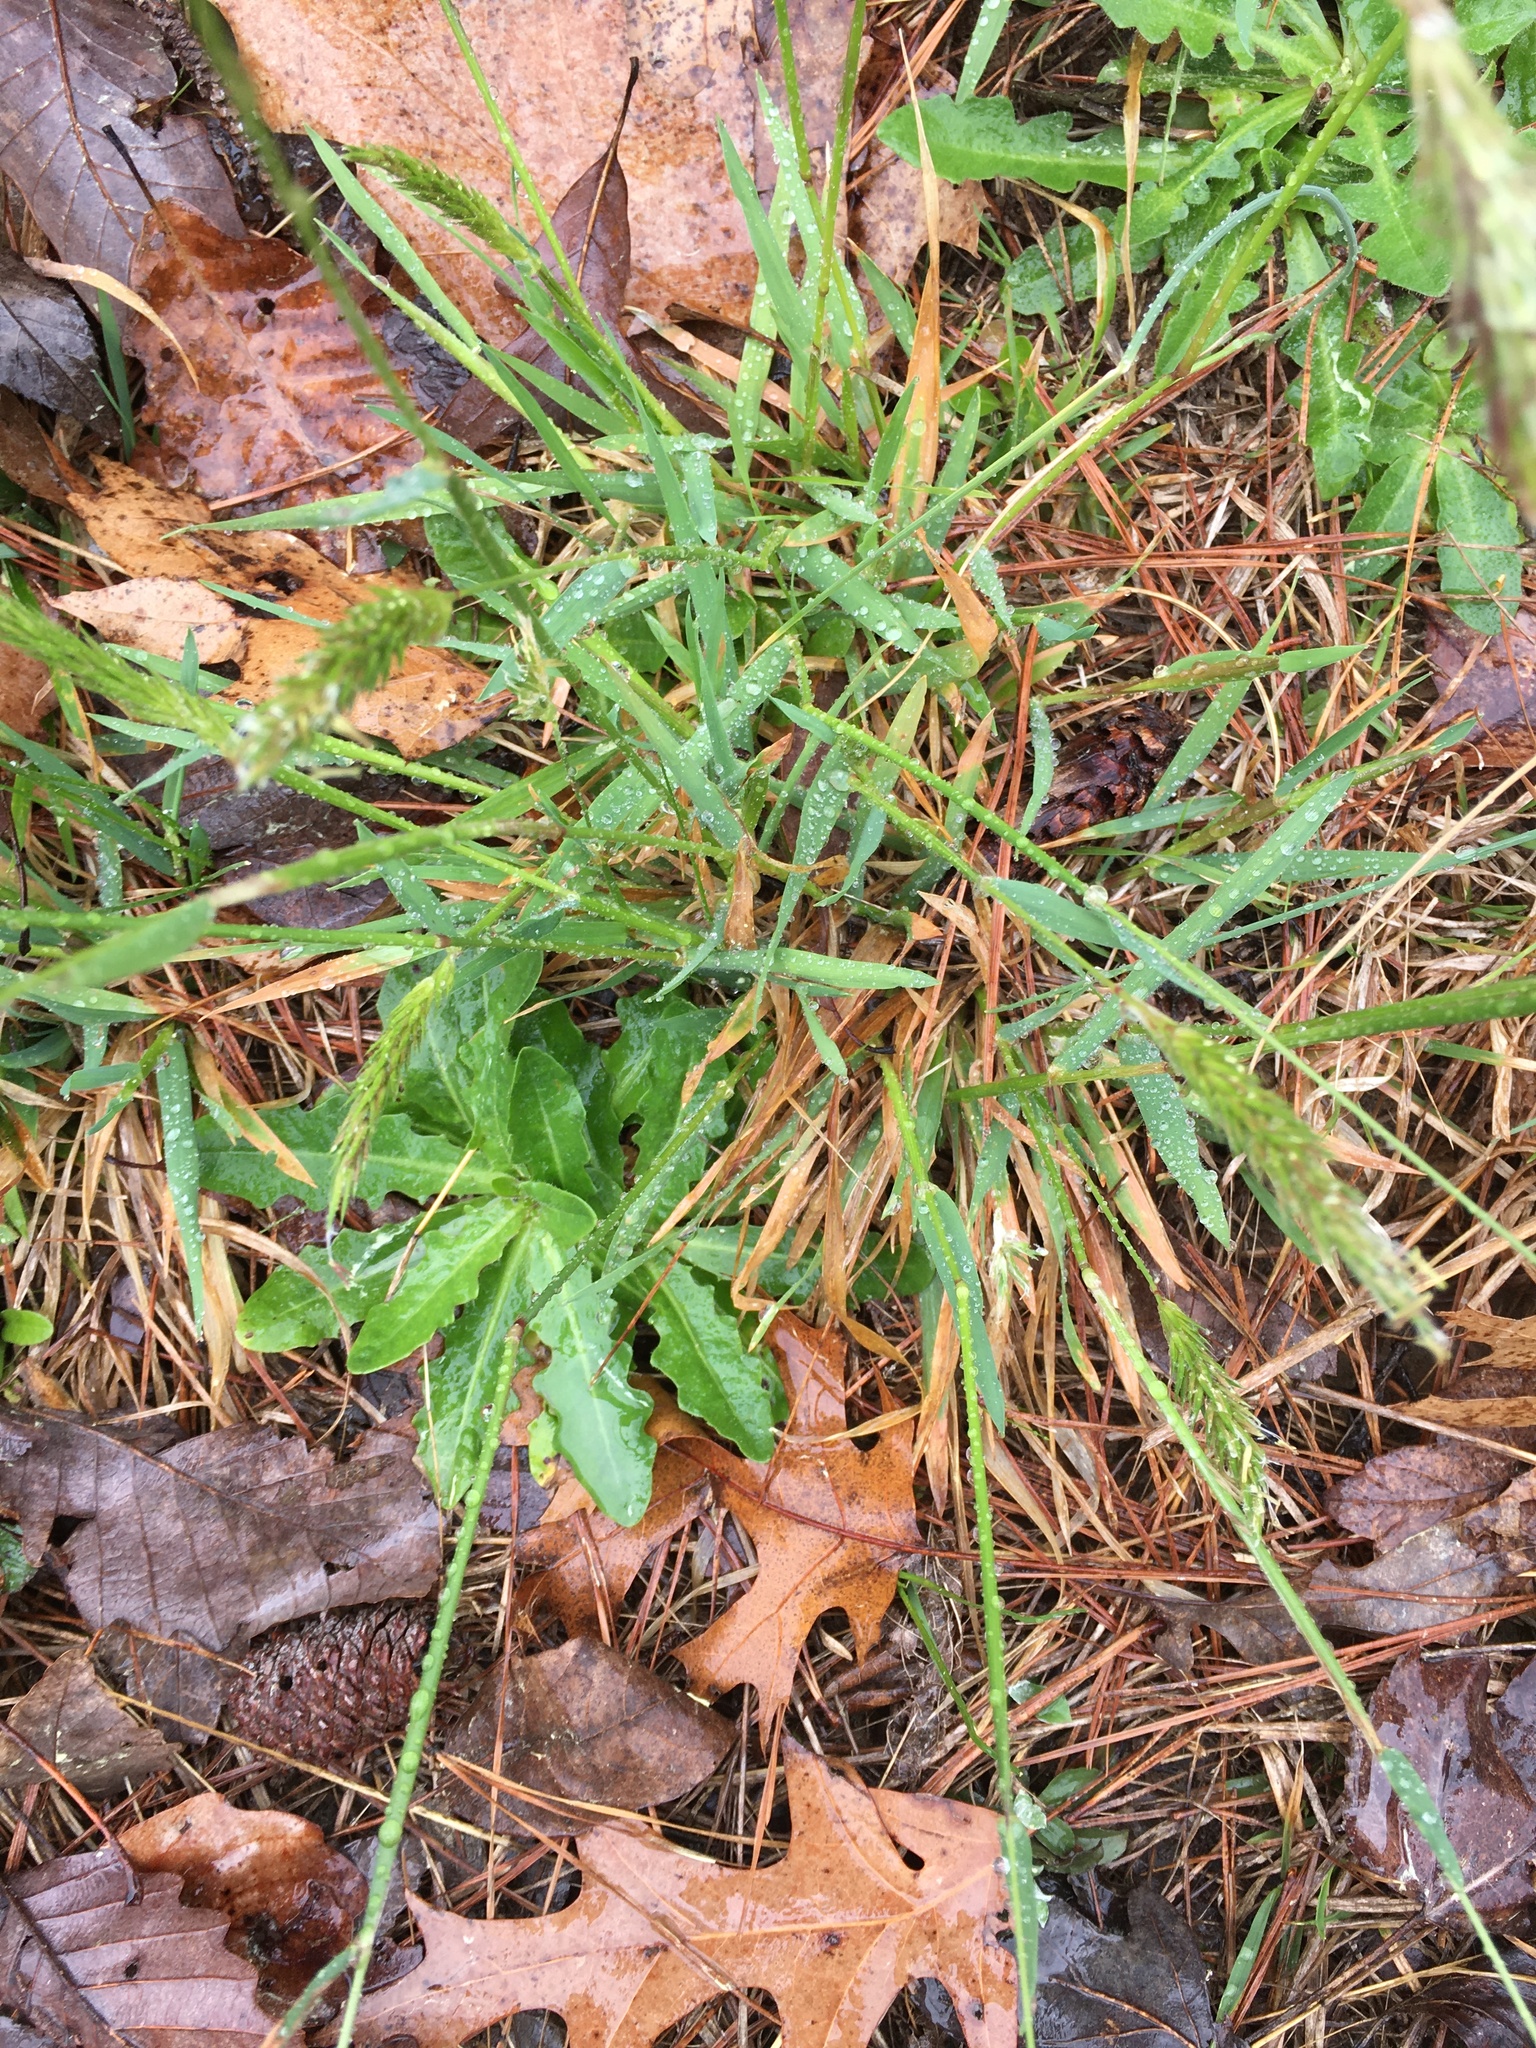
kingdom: Plantae
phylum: Tracheophyta
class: Liliopsida
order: Poales
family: Poaceae
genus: Anthoxanthum
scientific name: Anthoxanthum odoratum
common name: Sweet vernalgrass
